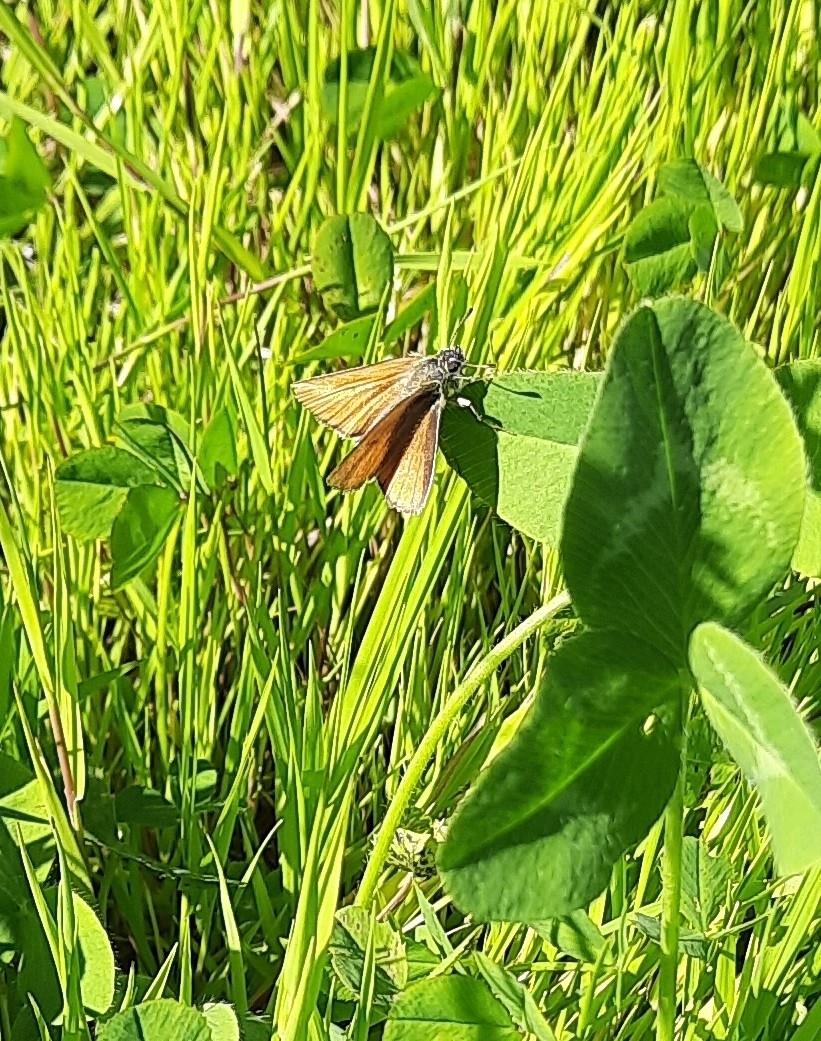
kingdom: Animalia
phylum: Arthropoda
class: Insecta
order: Lepidoptera
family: Hesperiidae
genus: Thymelicus
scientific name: Thymelicus lineola
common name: Essex skipper
